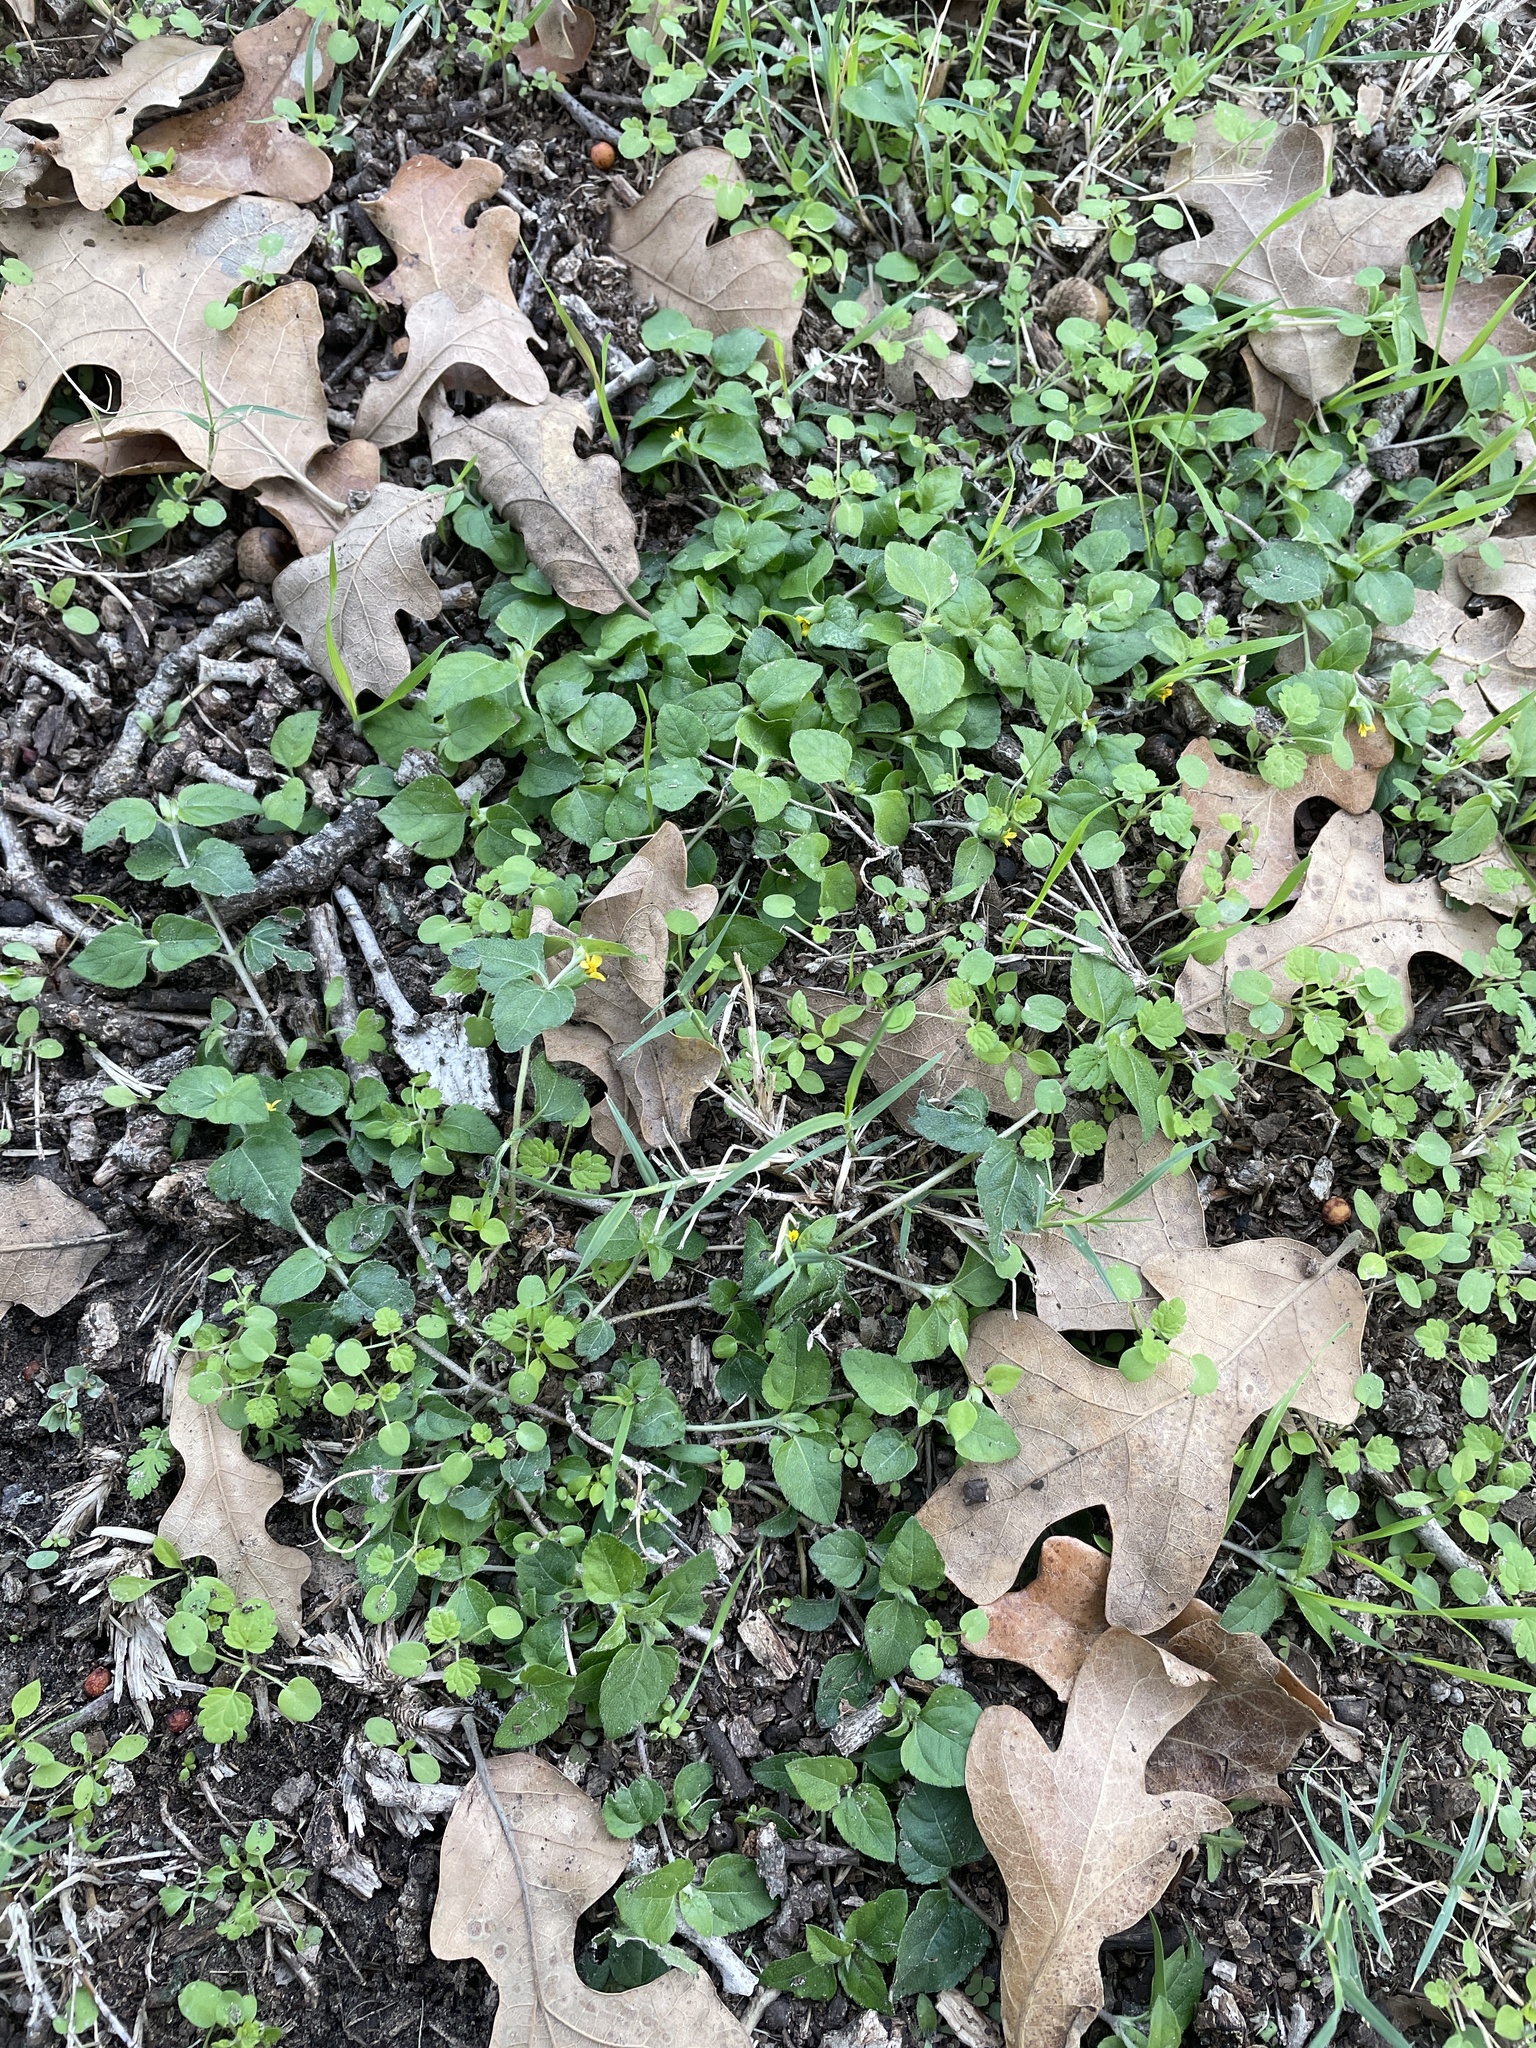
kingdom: Plantae
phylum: Tracheophyta
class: Magnoliopsida
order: Asterales
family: Asteraceae
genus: Calyptocarpus
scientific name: Calyptocarpus vialis
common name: Straggler daisy
